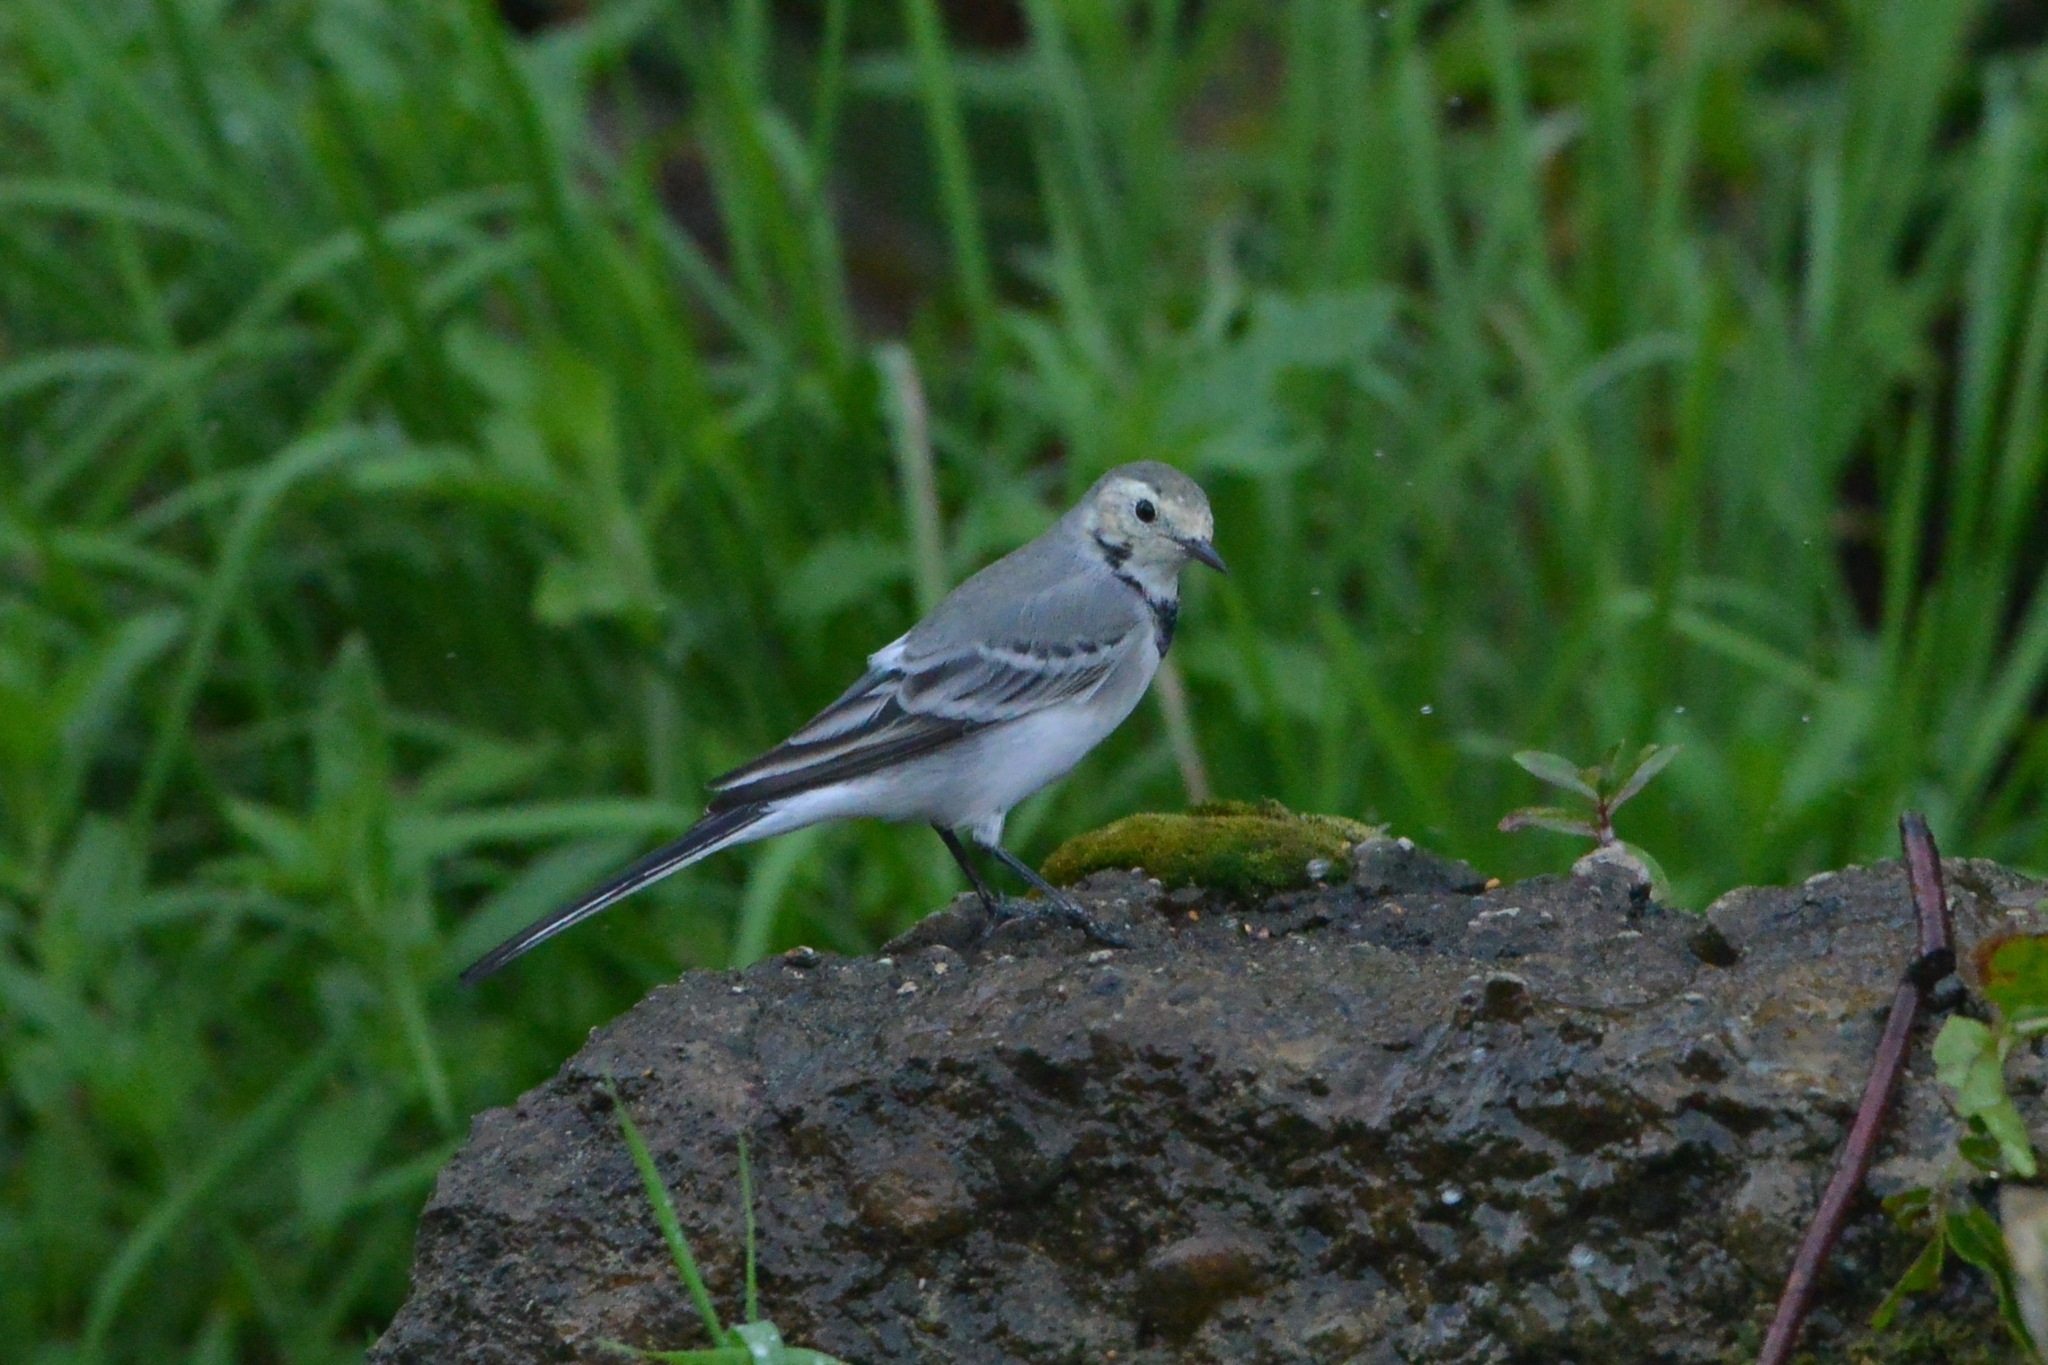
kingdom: Animalia
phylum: Chordata
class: Aves
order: Passeriformes
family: Motacillidae
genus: Motacilla
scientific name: Motacilla alba
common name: White wagtail
